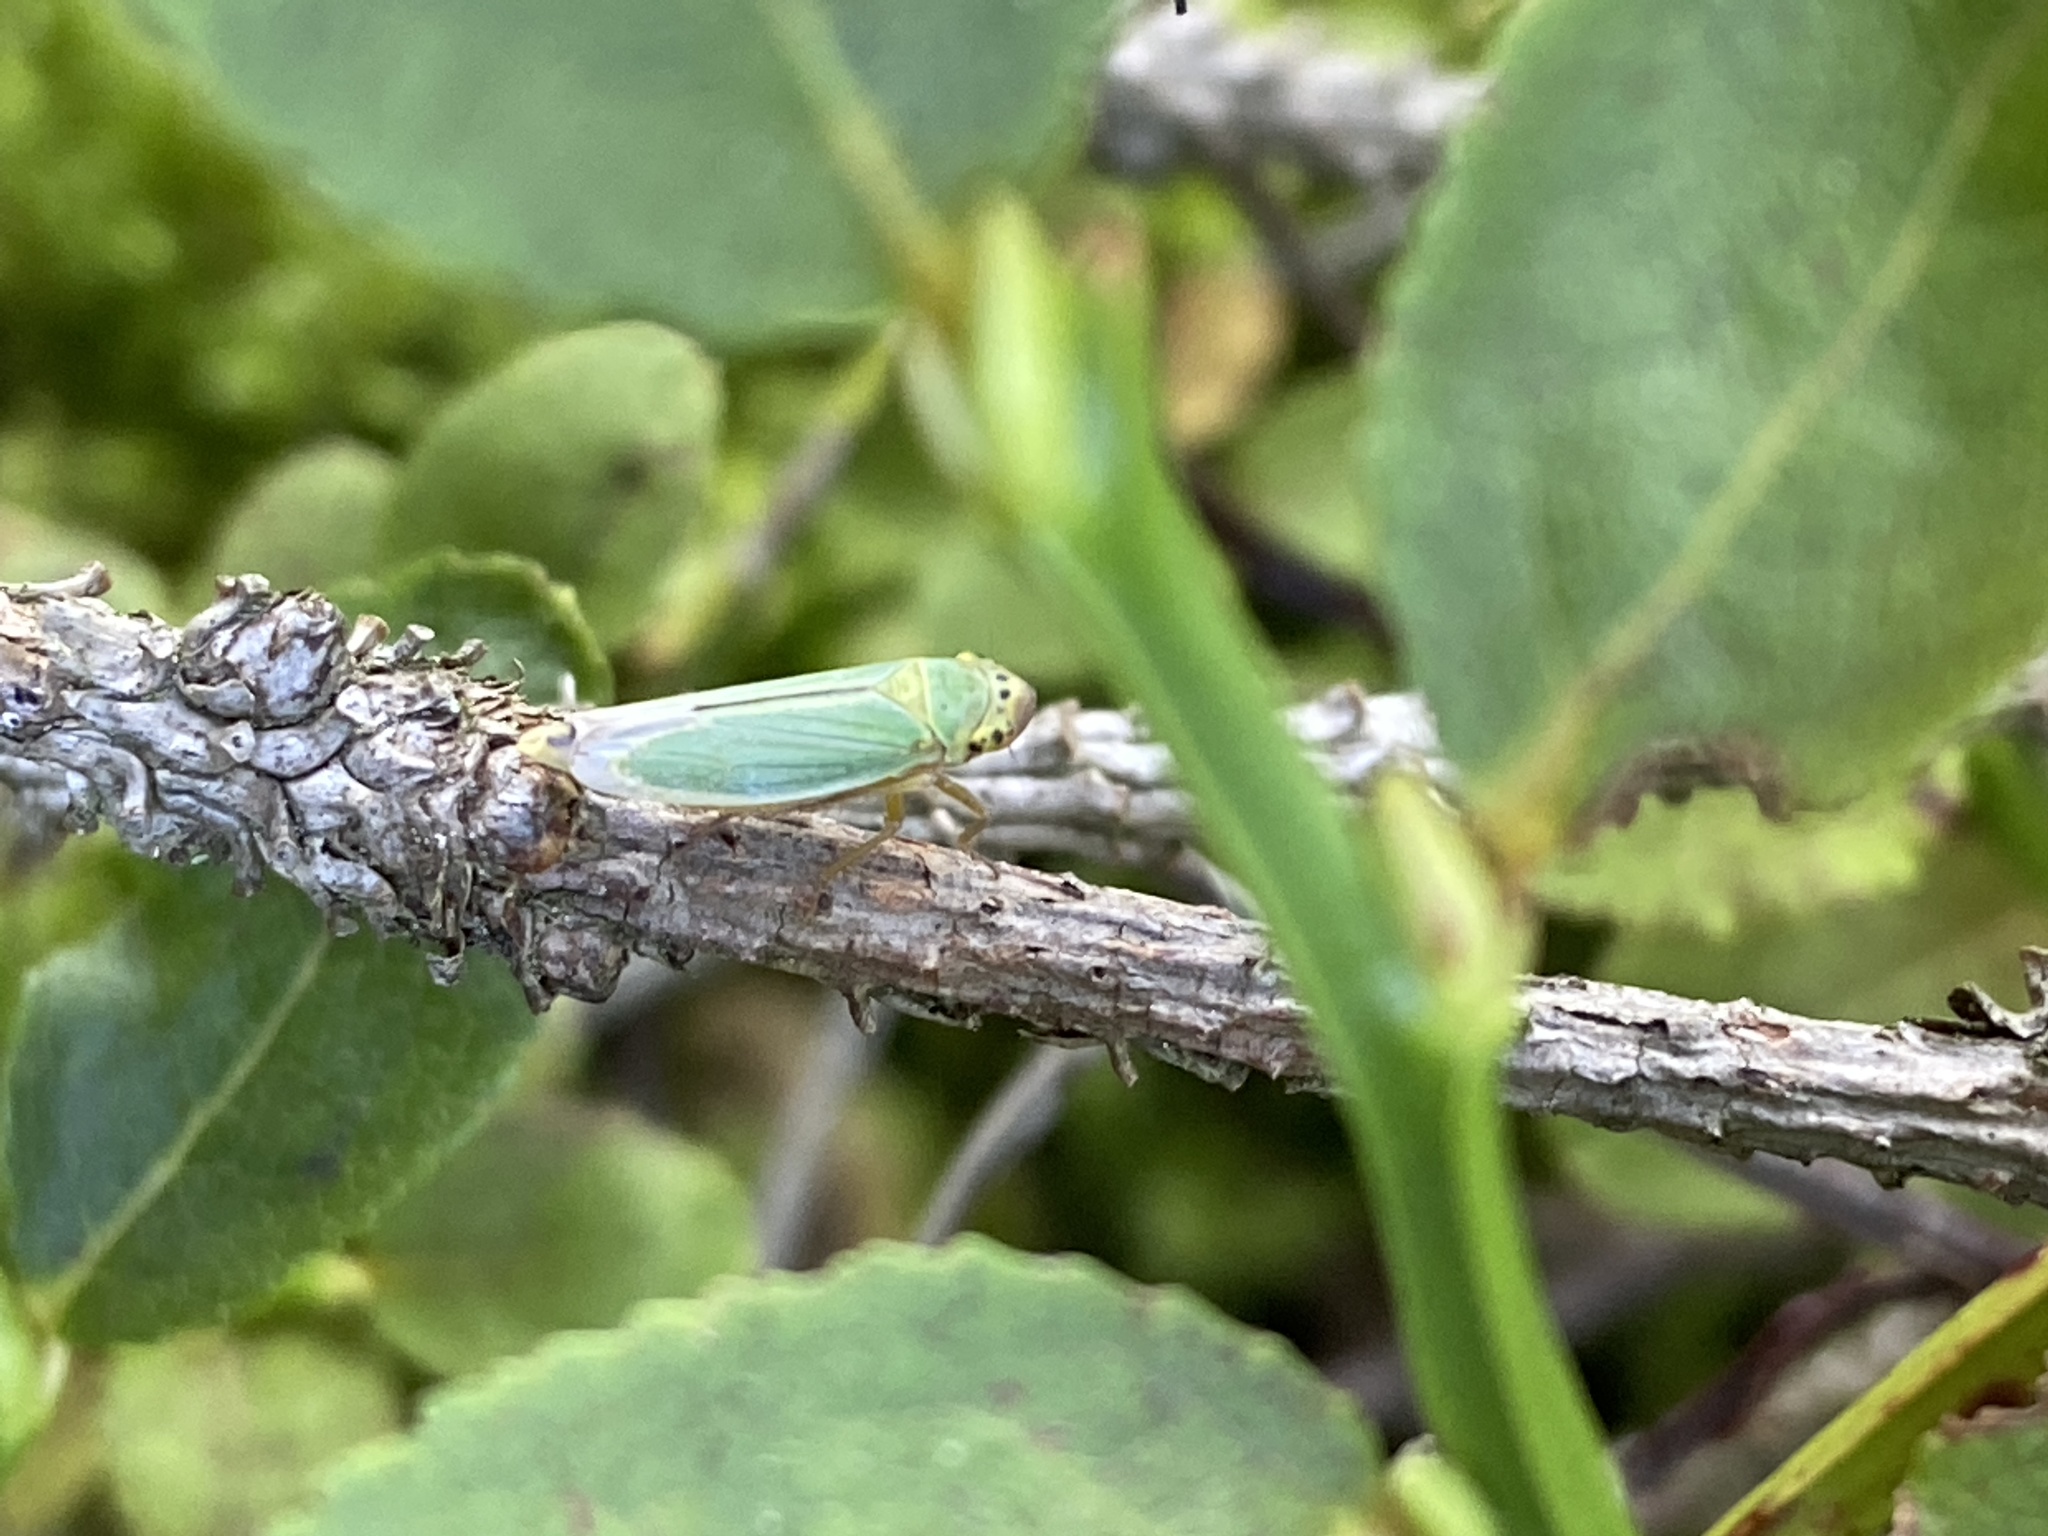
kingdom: Animalia
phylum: Arthropoda
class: Insecta
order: Hemiptera
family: Cicadellidae
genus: Cicadella
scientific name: Cicadella viridis
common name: Leafhopper
